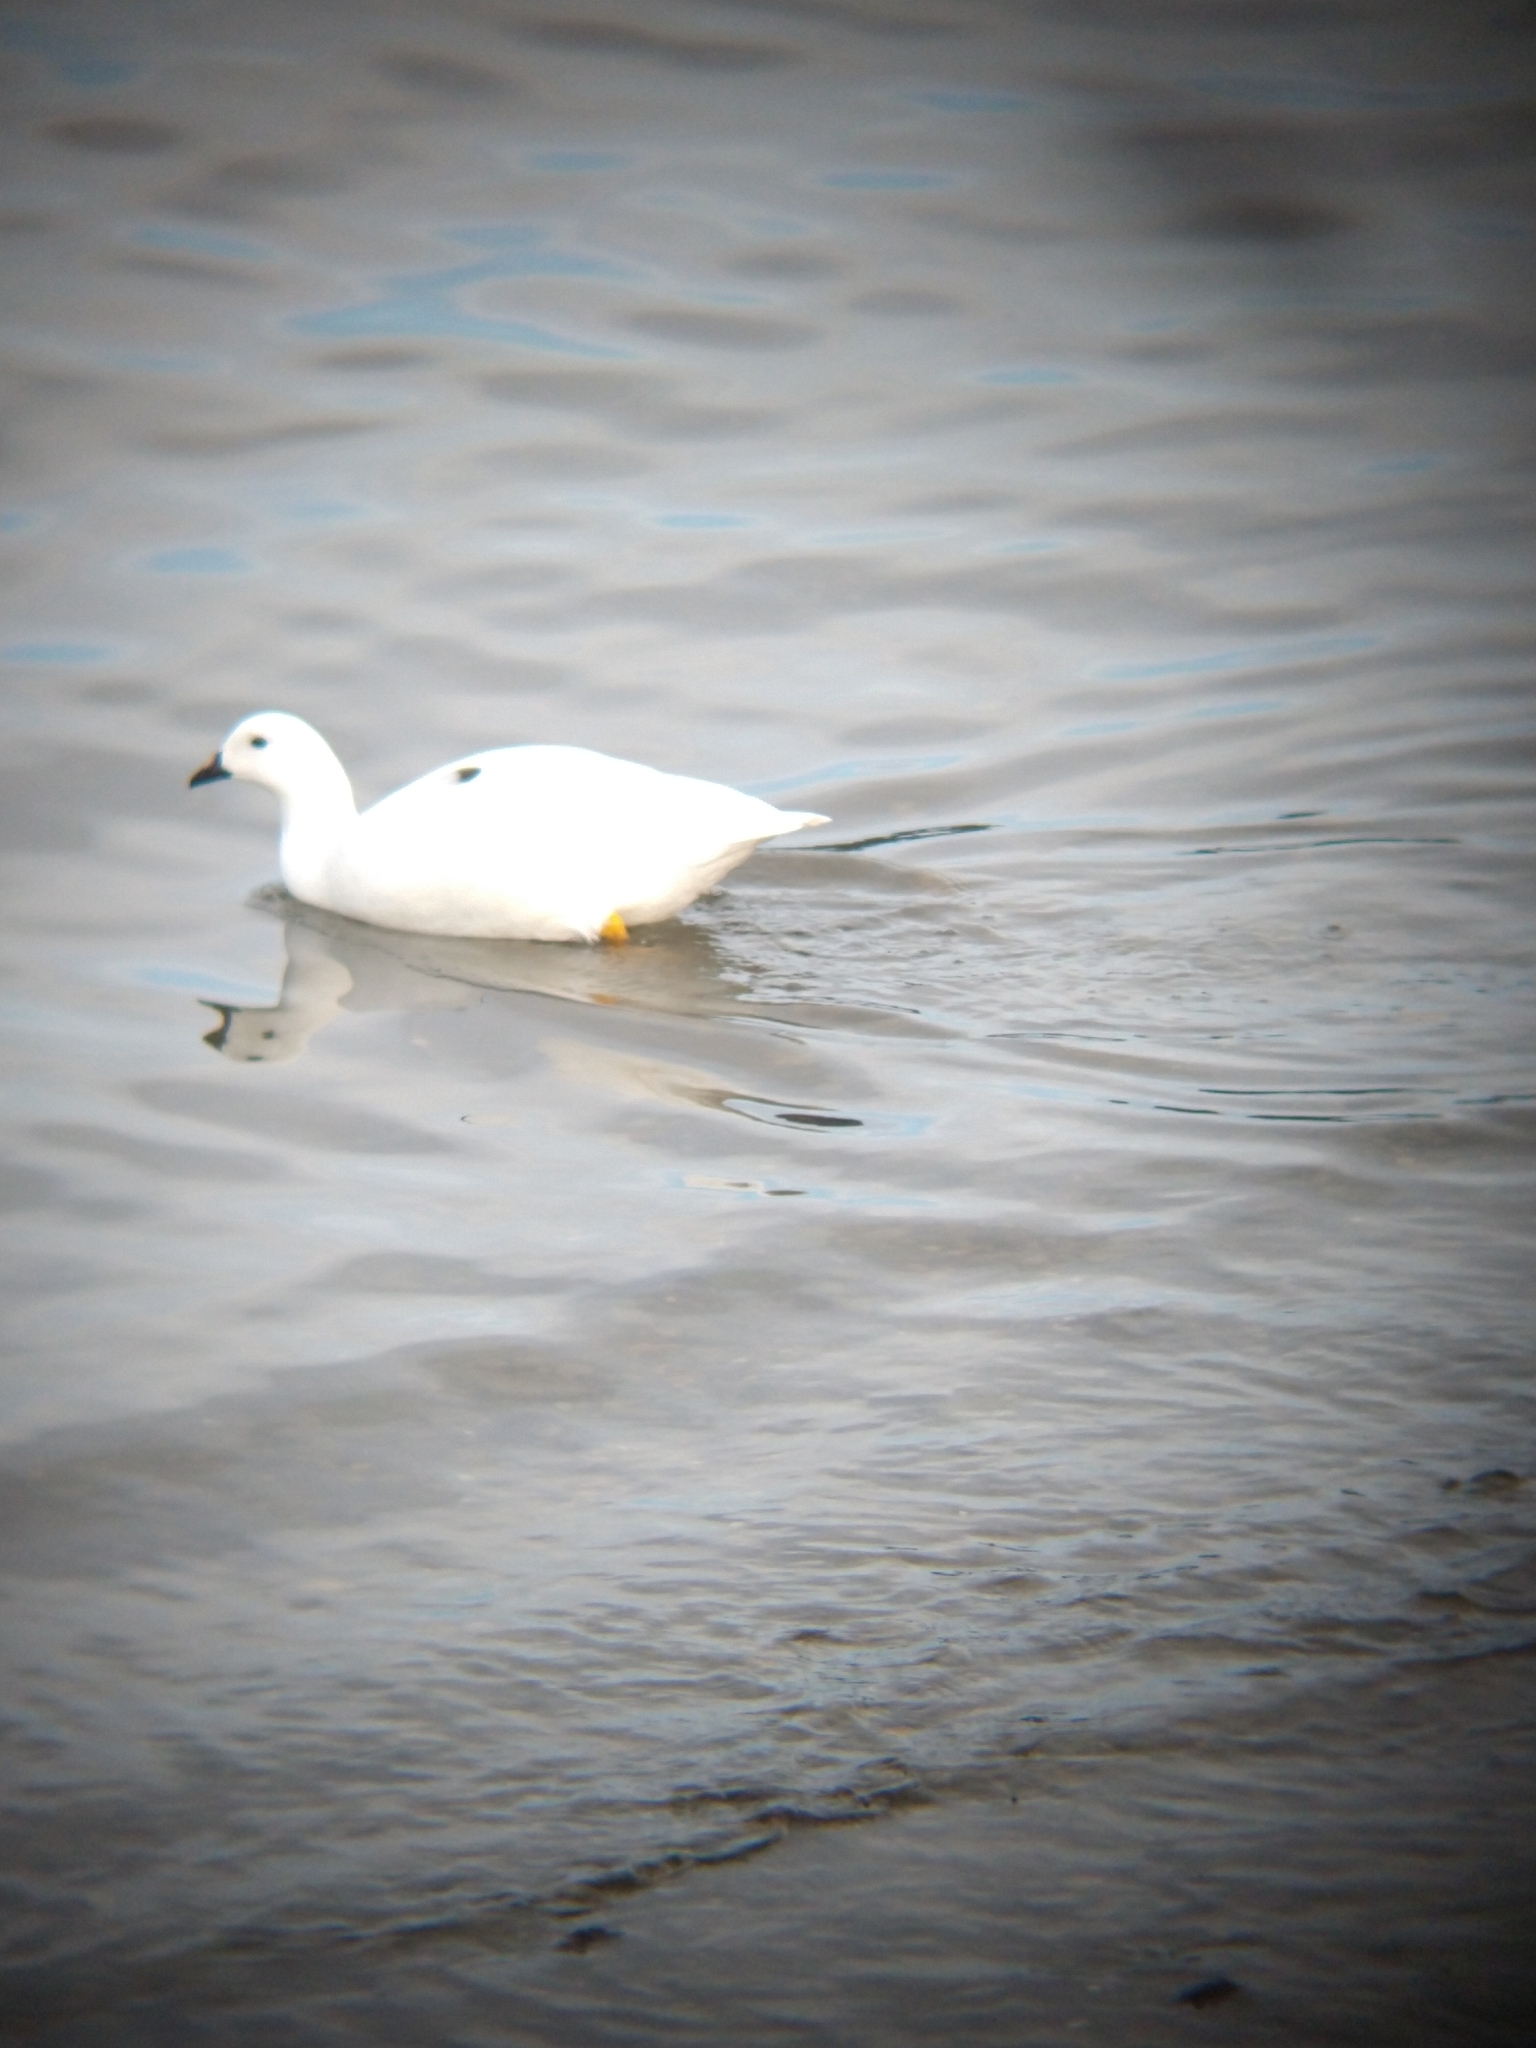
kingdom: Animalia
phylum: Chordata
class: Aves
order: Anseriformes
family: Anatidae
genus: Chloephaga
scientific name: Chloephaga hybrida
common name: Kelp goose
